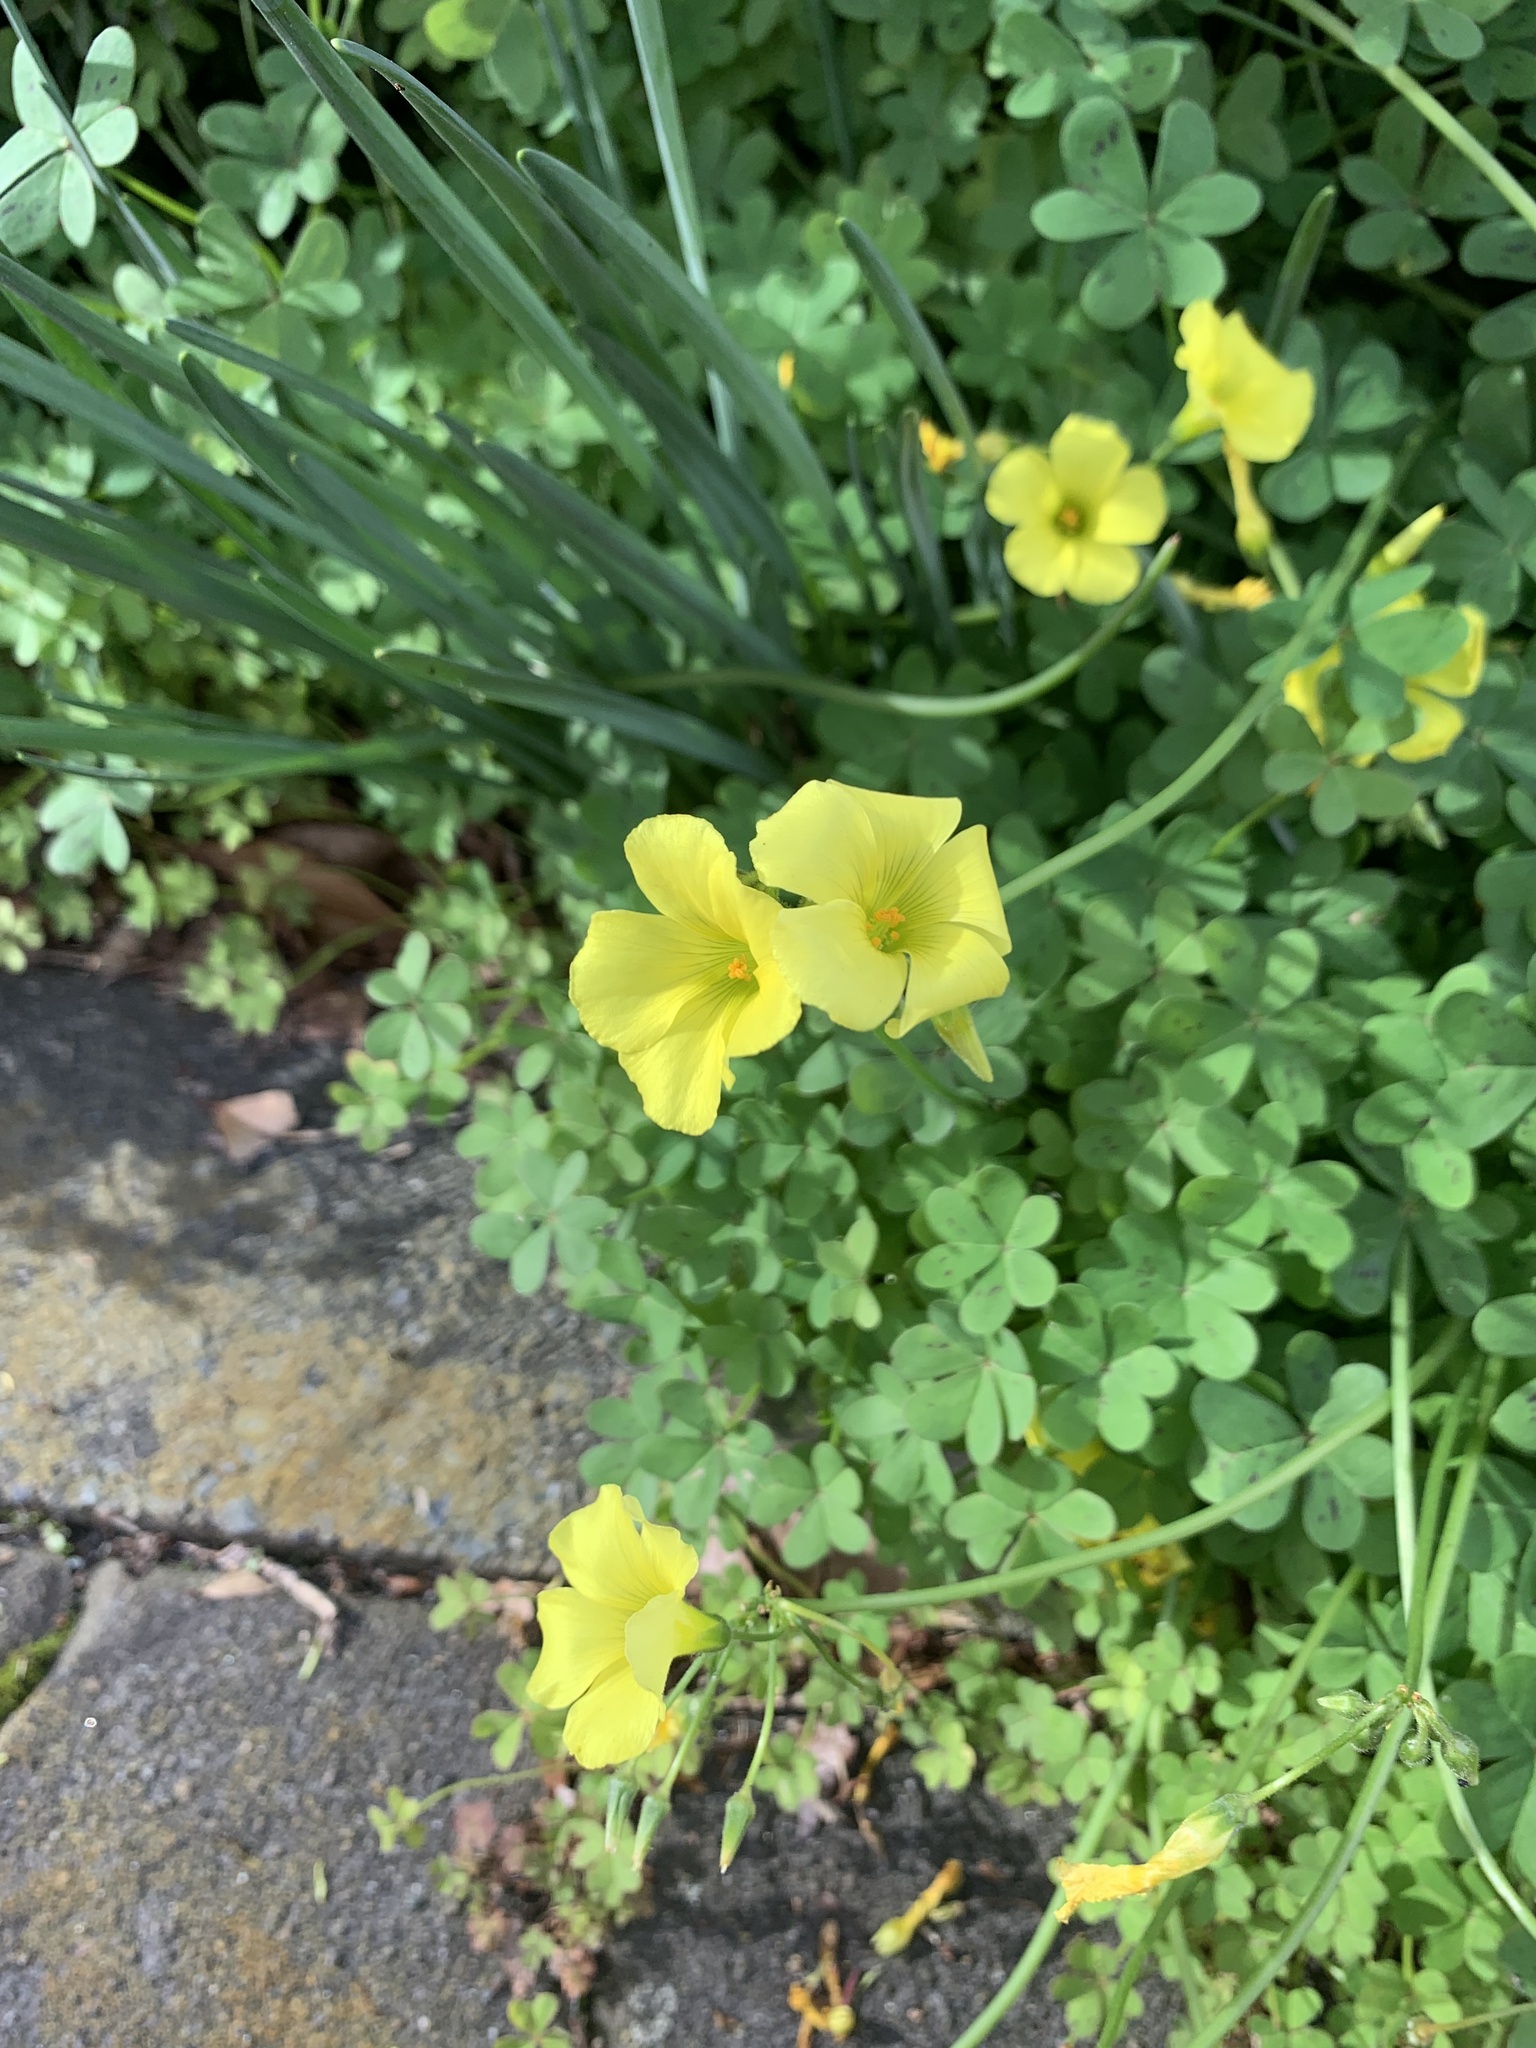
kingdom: Plantae
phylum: Tracheophyta
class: Magnoliopsida
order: Oxalidales
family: Oxalidaceae
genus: Oxalis
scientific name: Oxalis pes-caprae
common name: Bermuda-buttercup
